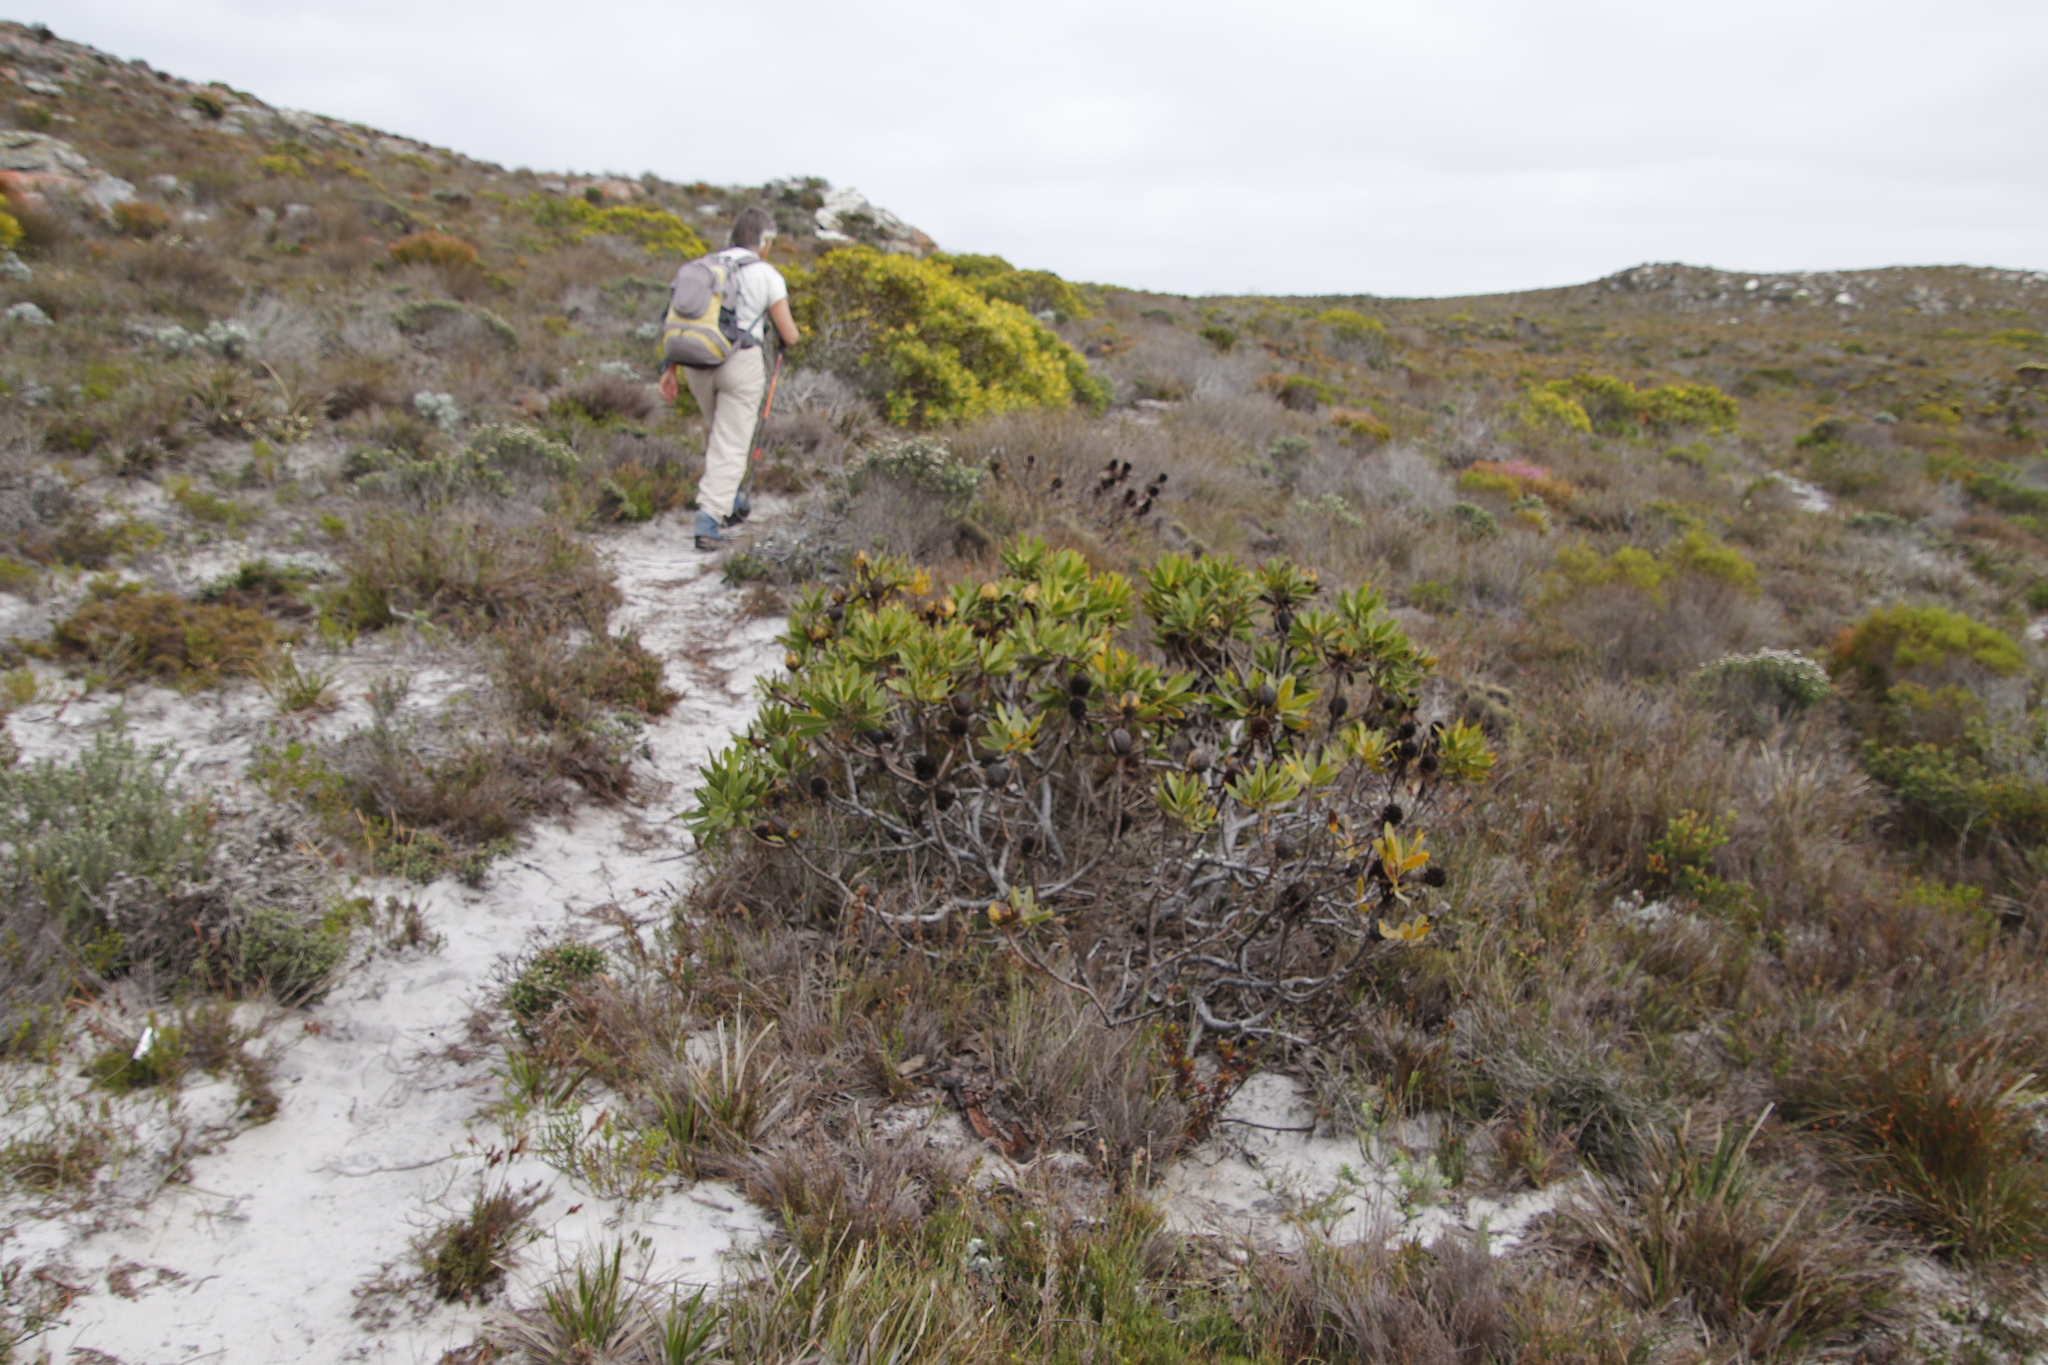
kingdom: Plantae
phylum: Tracheophyta
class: Magnoliopsida
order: Proteales
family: Proteaceae
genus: Leucadendron
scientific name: Leucadendron laureolum
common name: Golden sunshinebush
